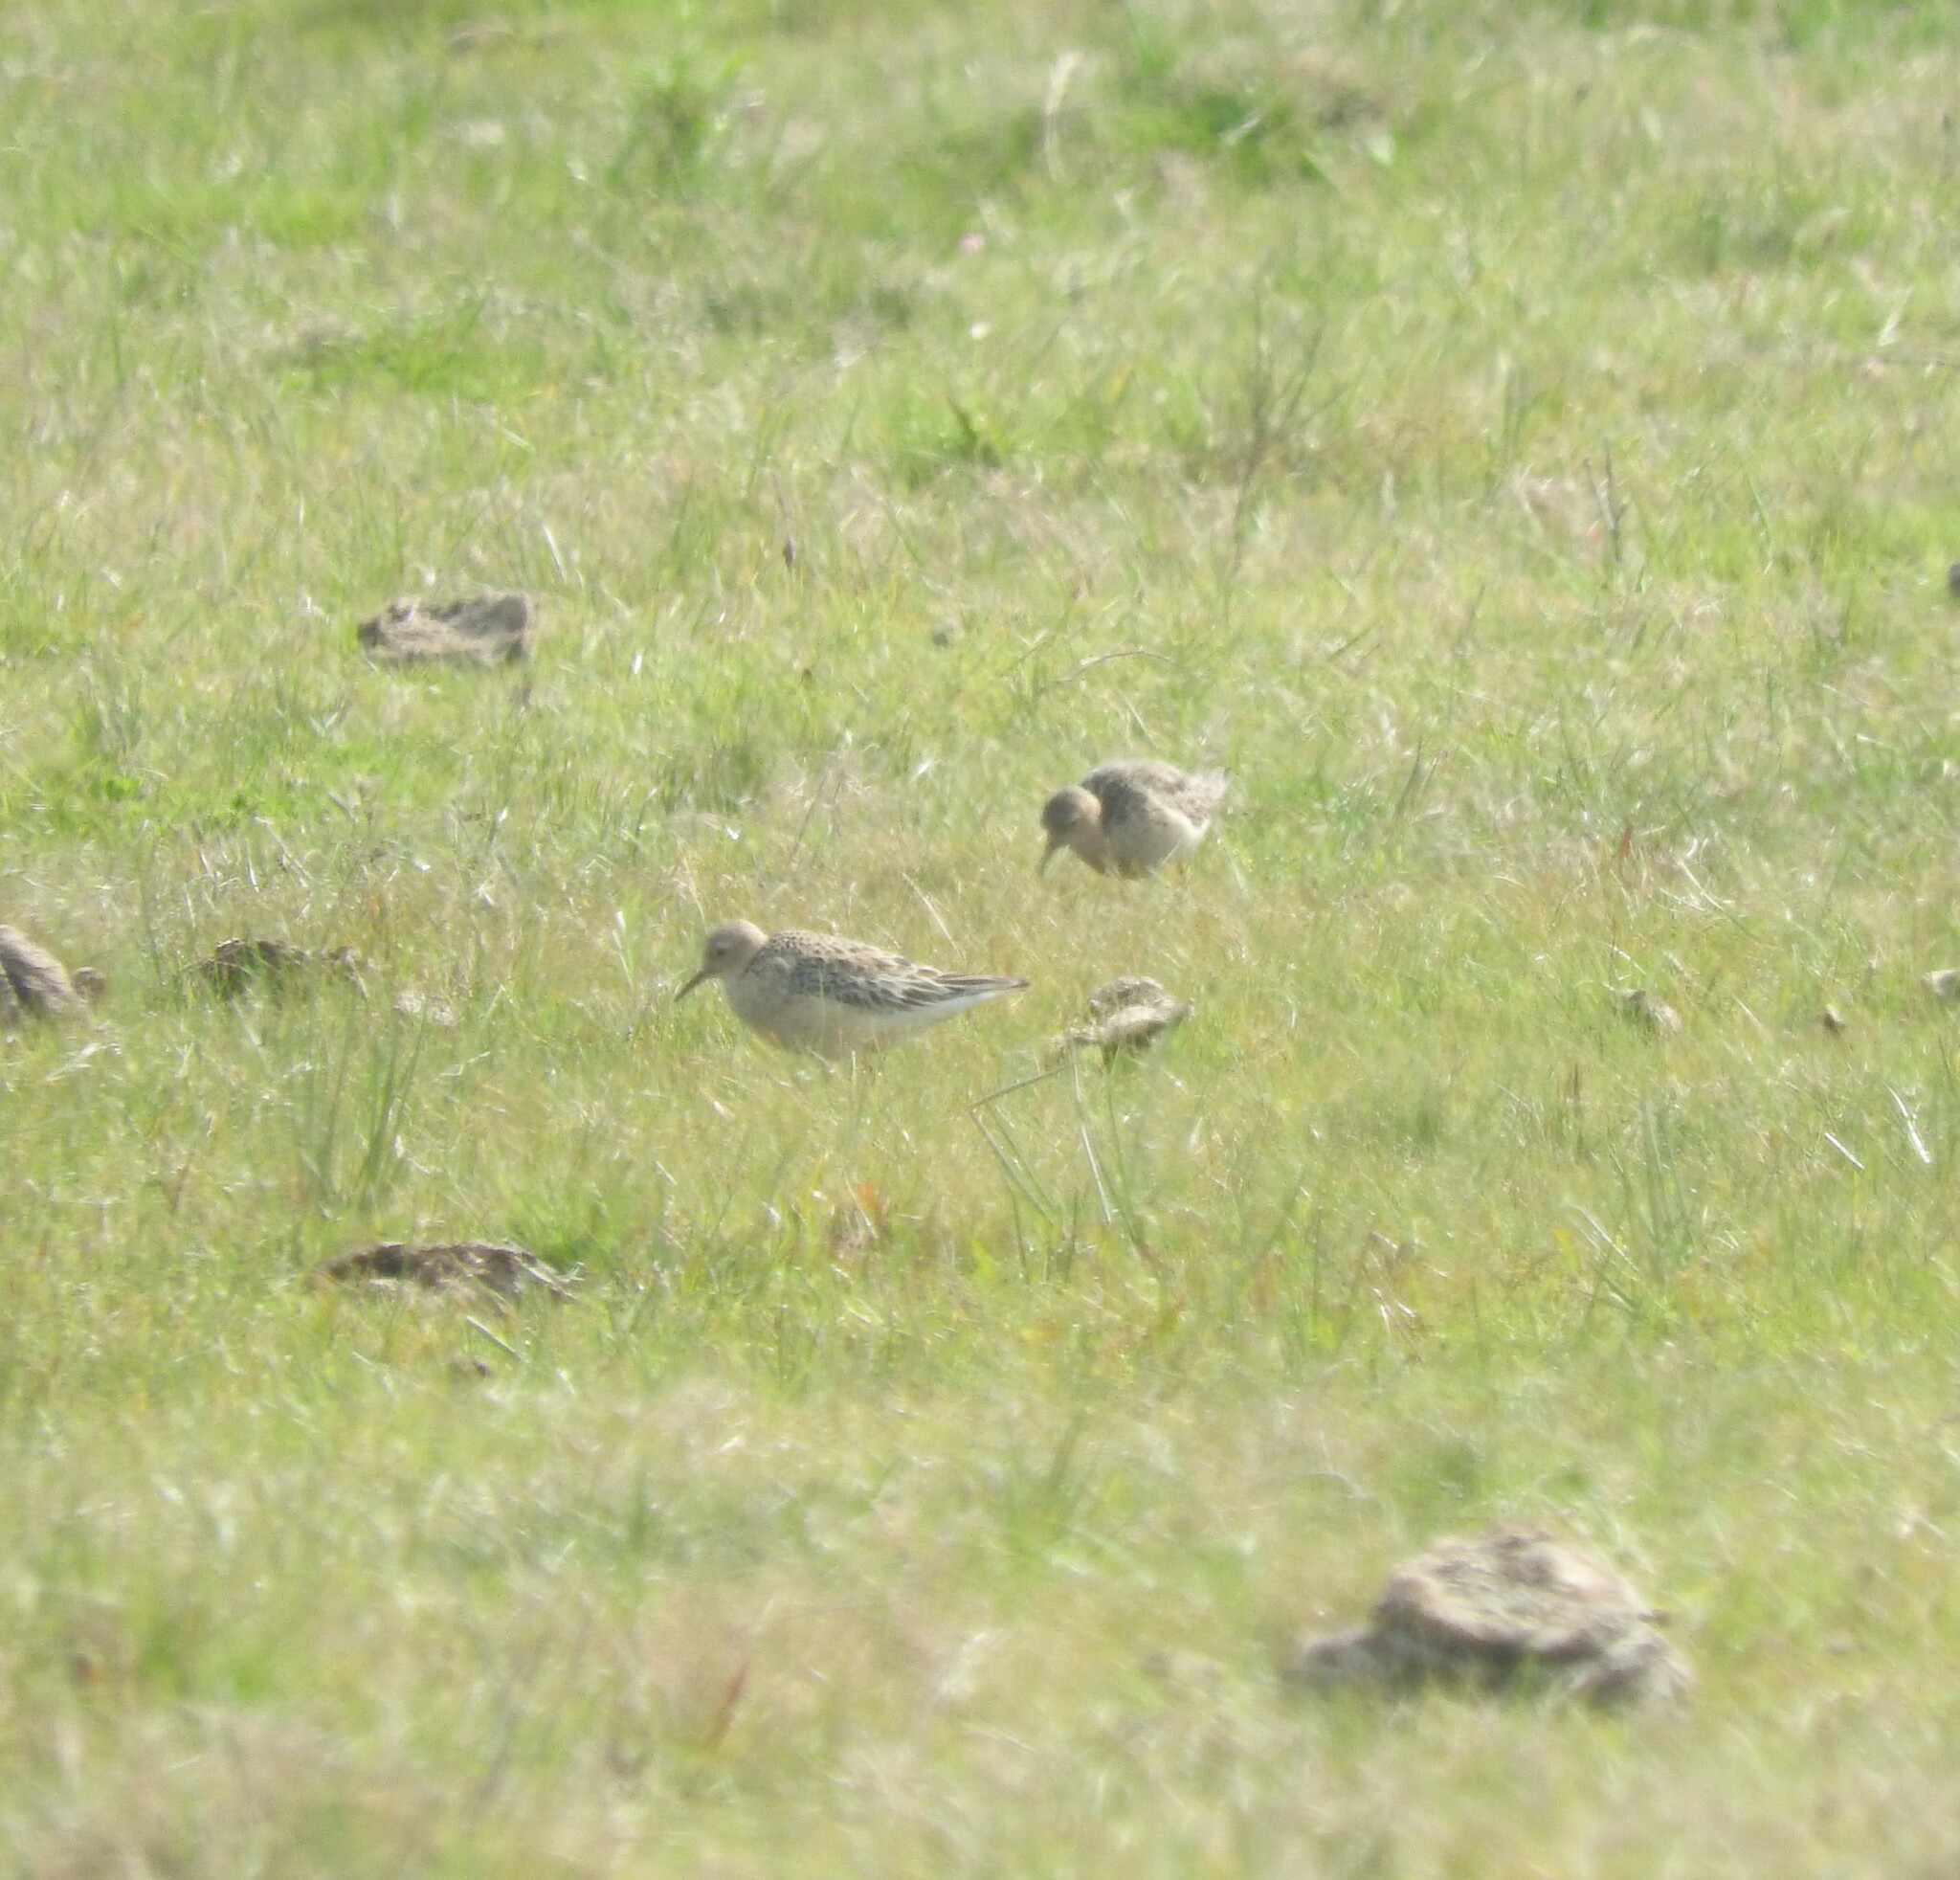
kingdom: Animalia
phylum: Chordata
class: Aves
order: Charadriiformes
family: Scolopacidae
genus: Calidris
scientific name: Calidris subruficollis
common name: Buff-breasted sandpiper
